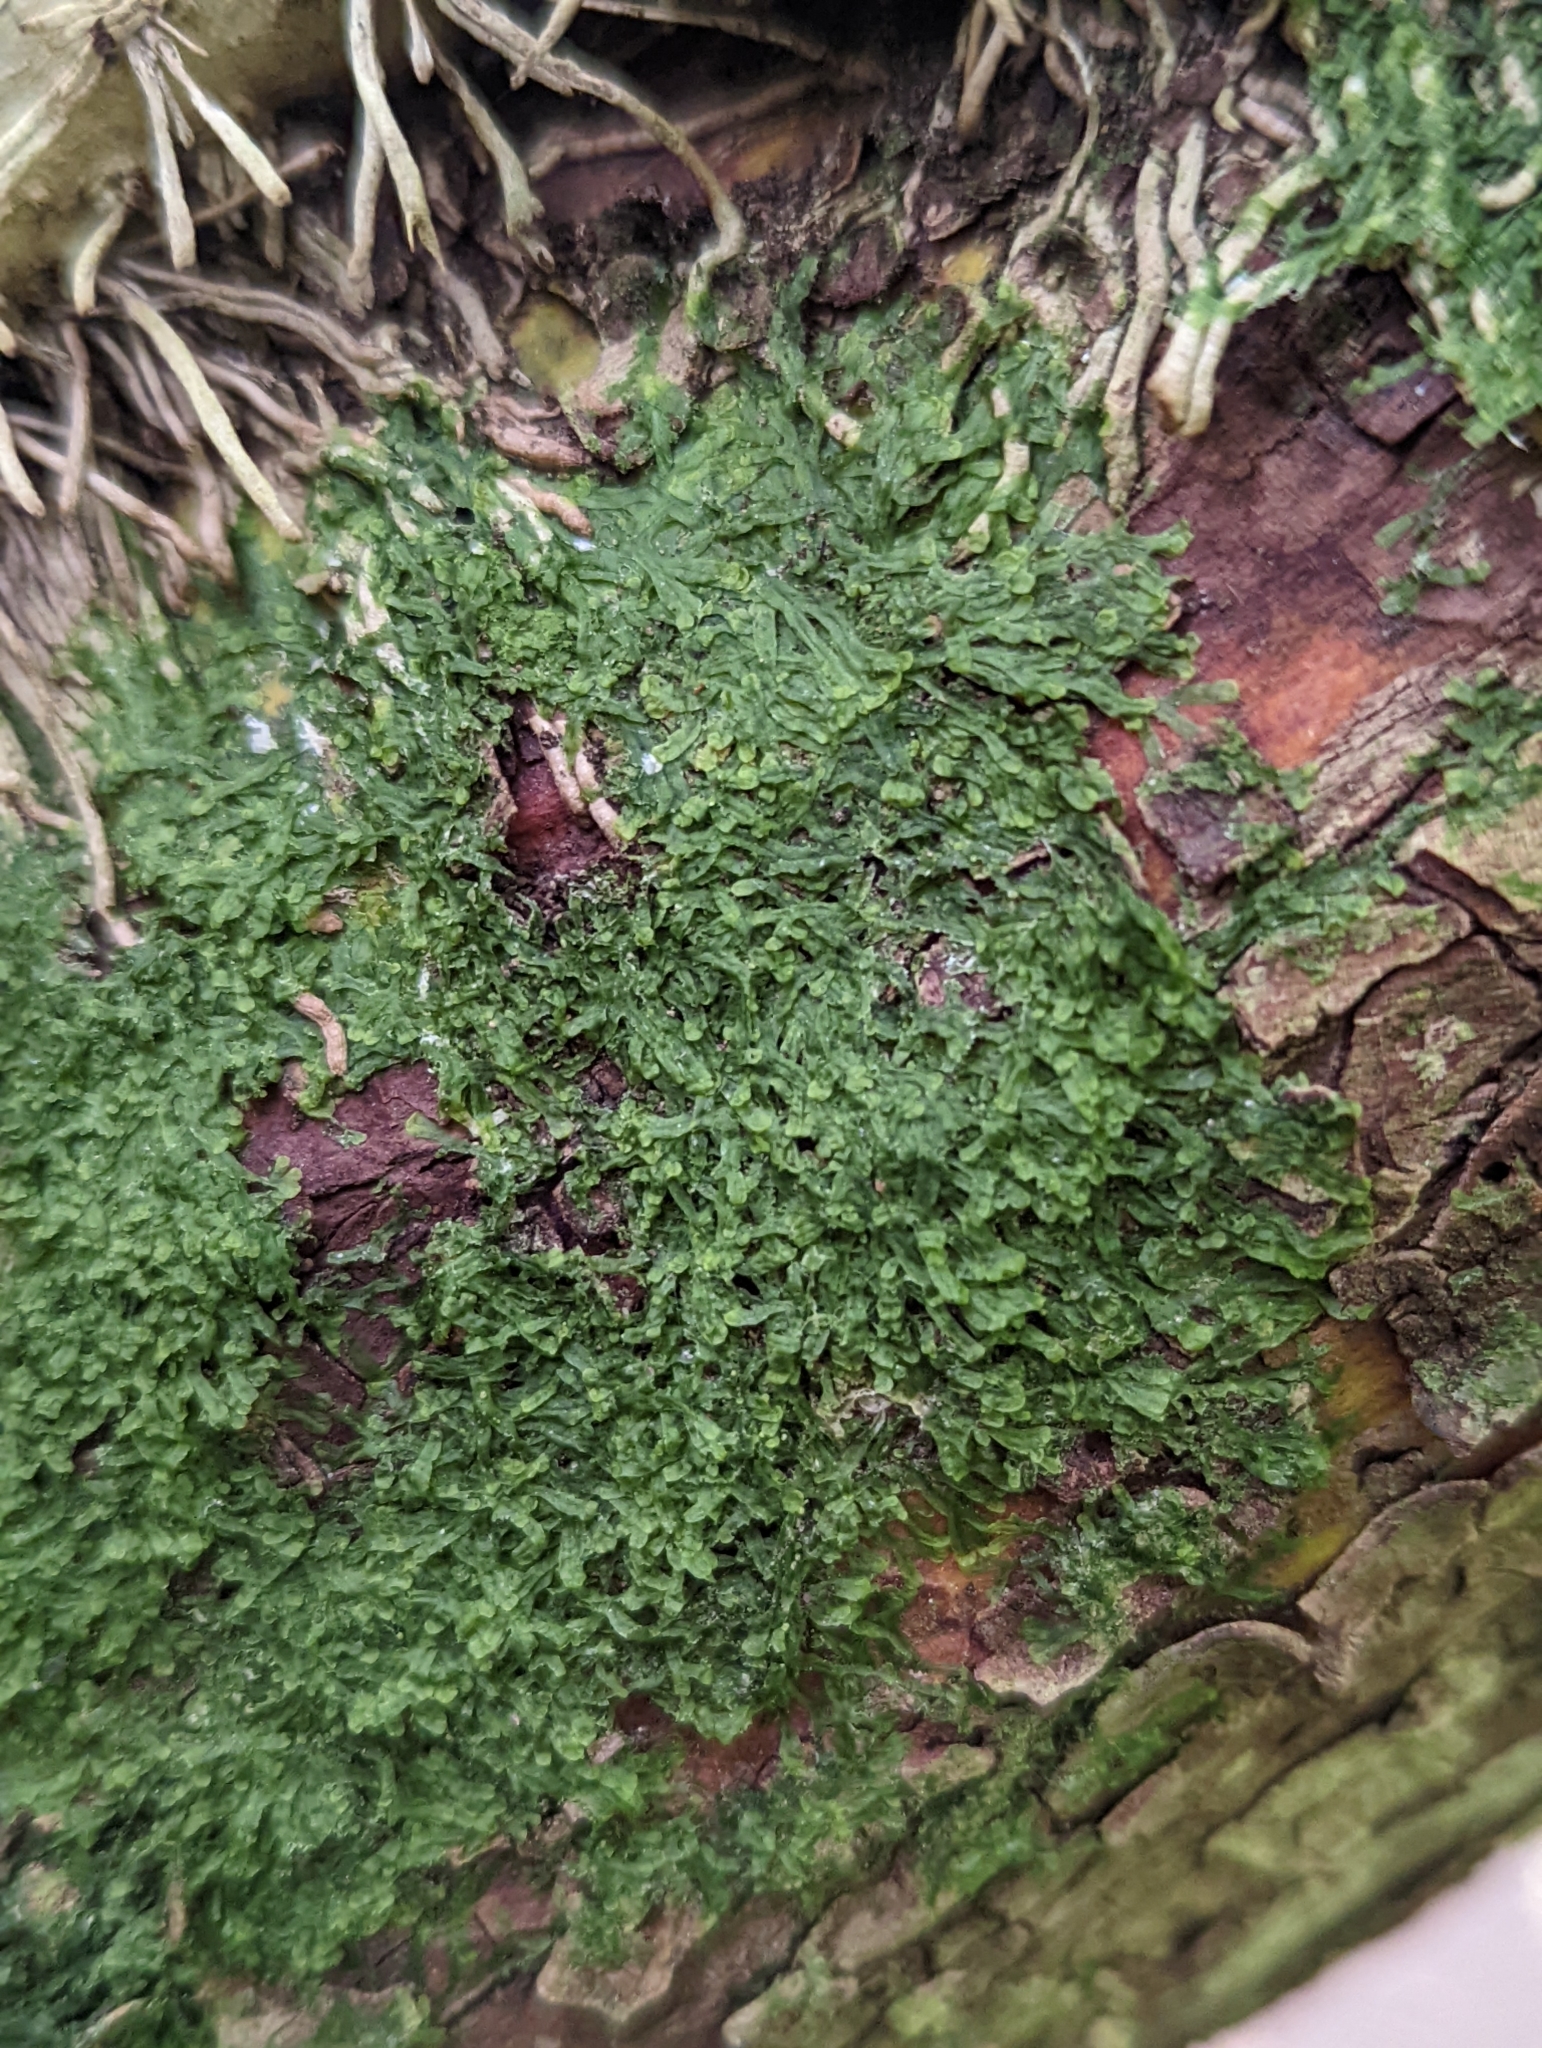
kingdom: Plantae
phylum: Marchantiophyta
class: Jungermanniopsida
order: Metzgeriales
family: Metzgeriaceae
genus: Metzgeria
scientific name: Metzgeria furcata
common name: Forked veilwort
